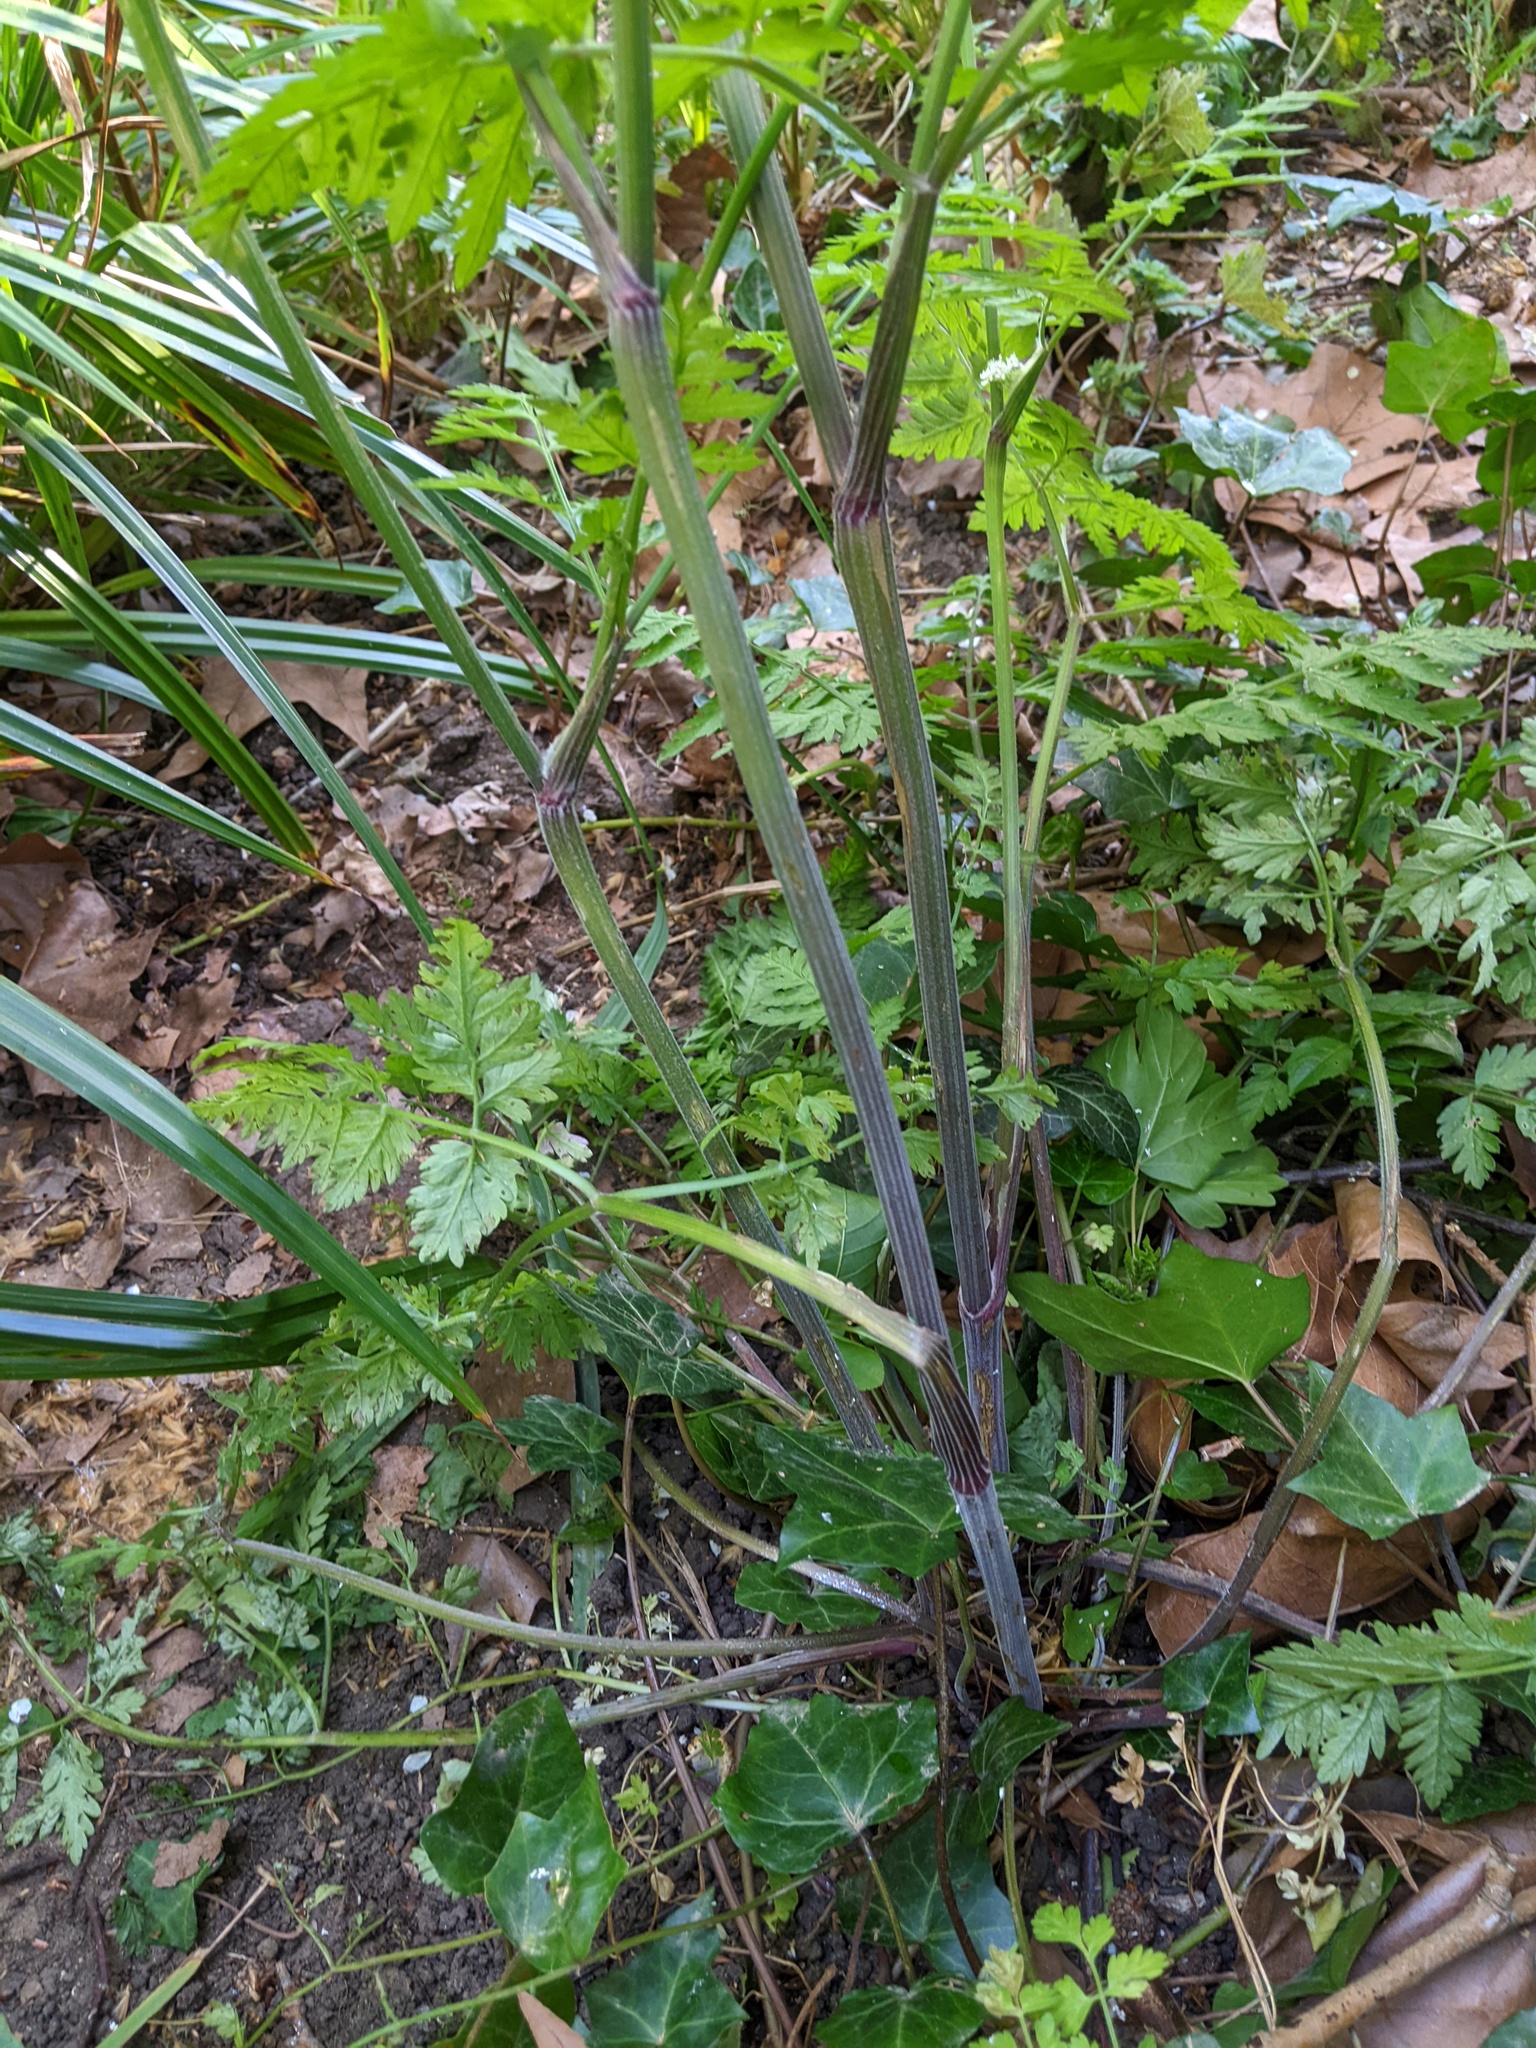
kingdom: Plantae
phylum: Tracheophyta
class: Magnoliopsida
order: Apiales
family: Apiaceae
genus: Anthriscus
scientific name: Anthriscus sylvestris
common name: Cow parsley
